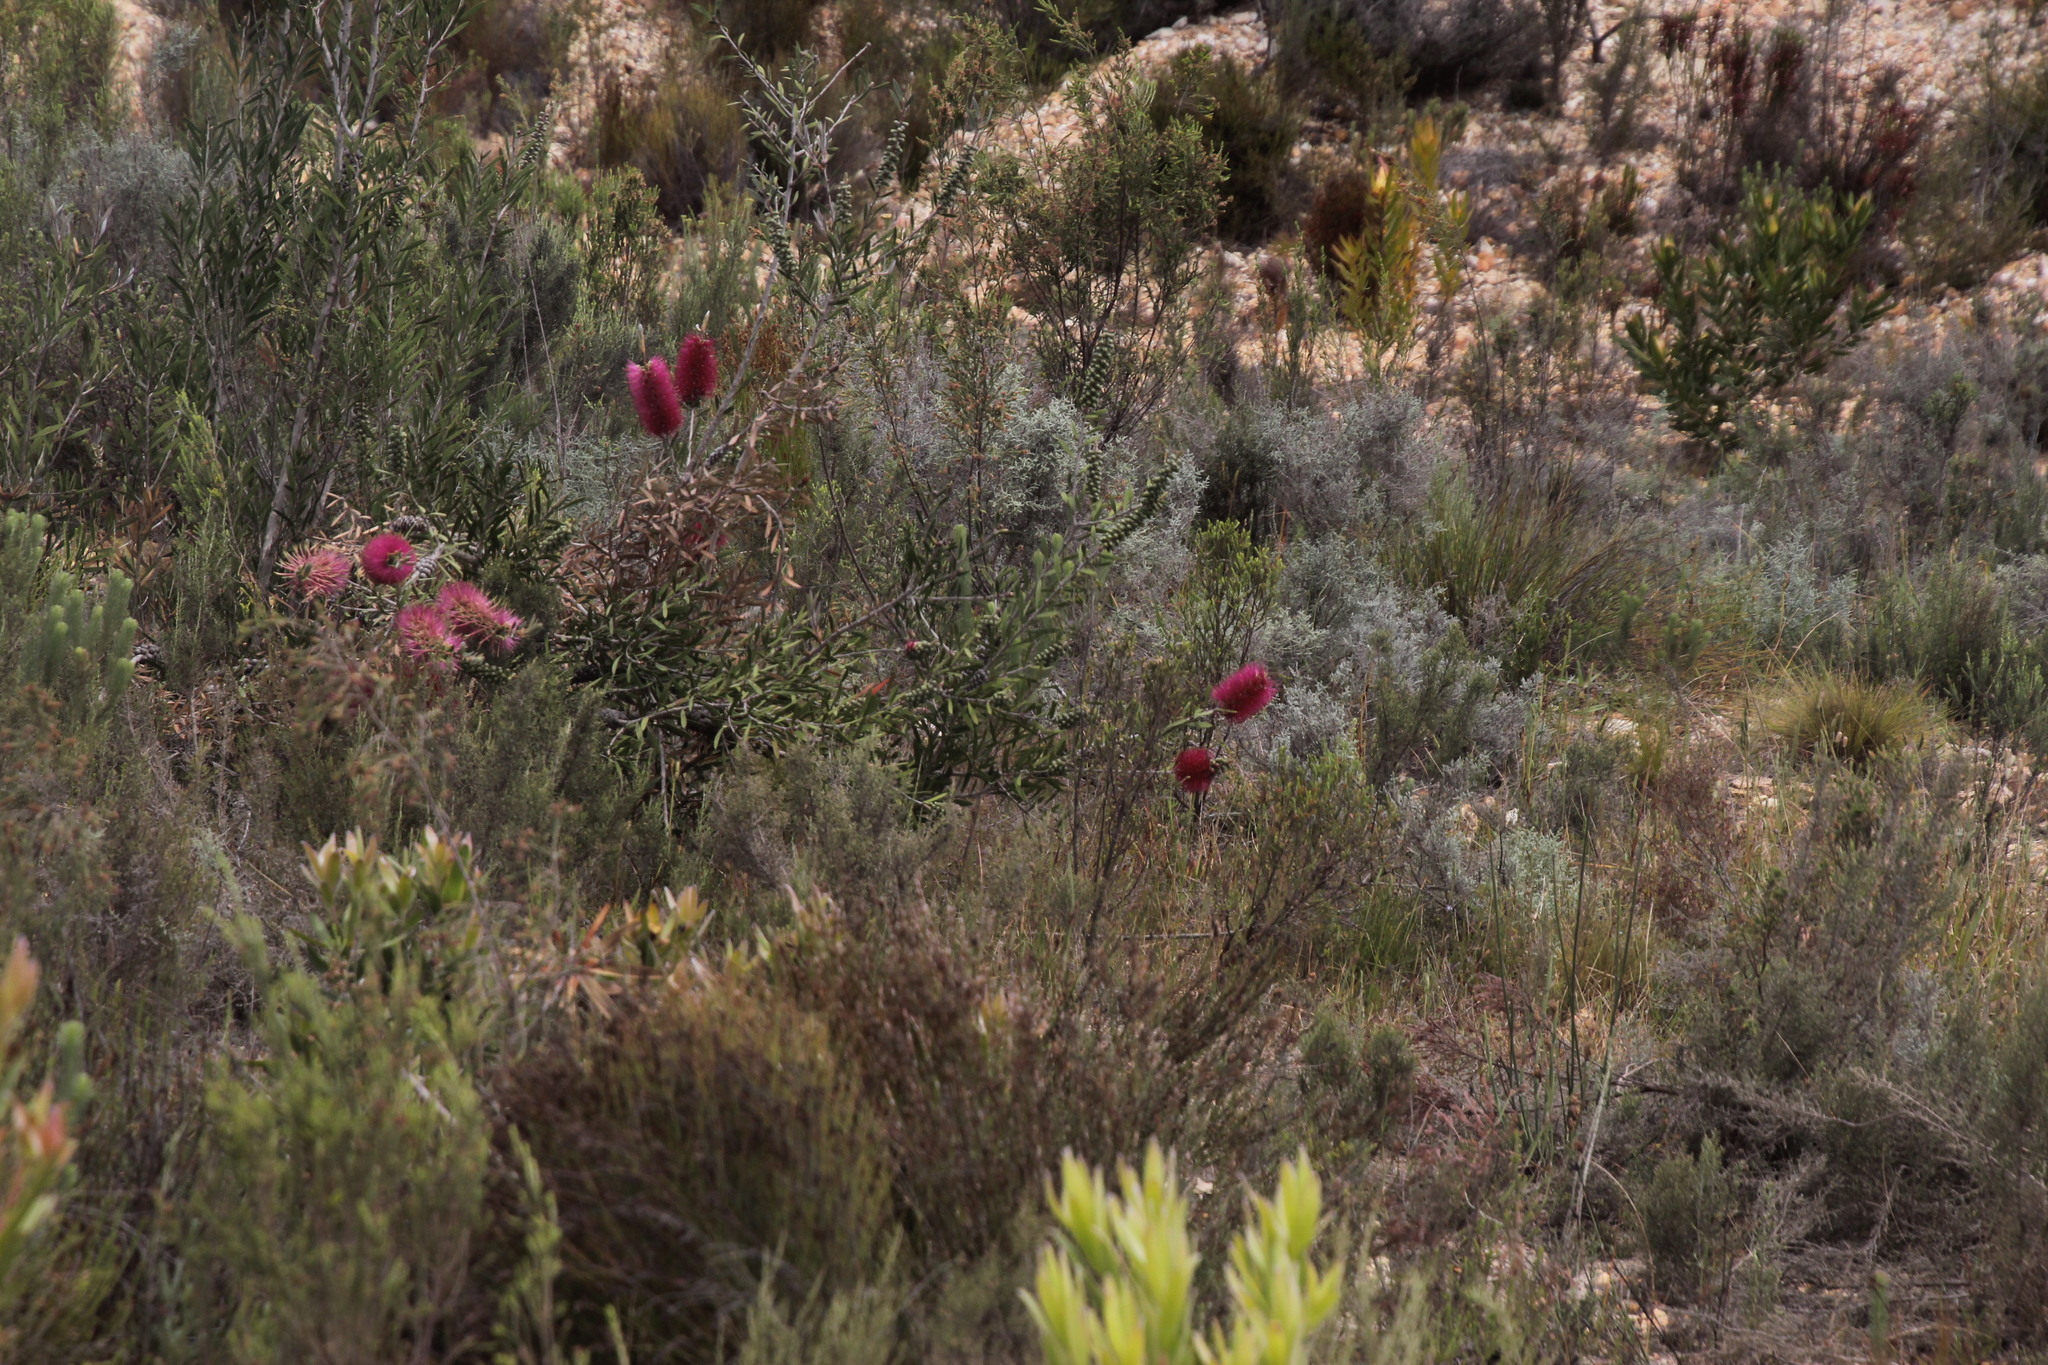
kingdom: Plantae
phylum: Tracheophyta
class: Magnoliopsida
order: Myrtales
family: Myrtaceae
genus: Callistemon
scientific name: Callistemon rugulosus
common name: Scarlet bottlebrush
